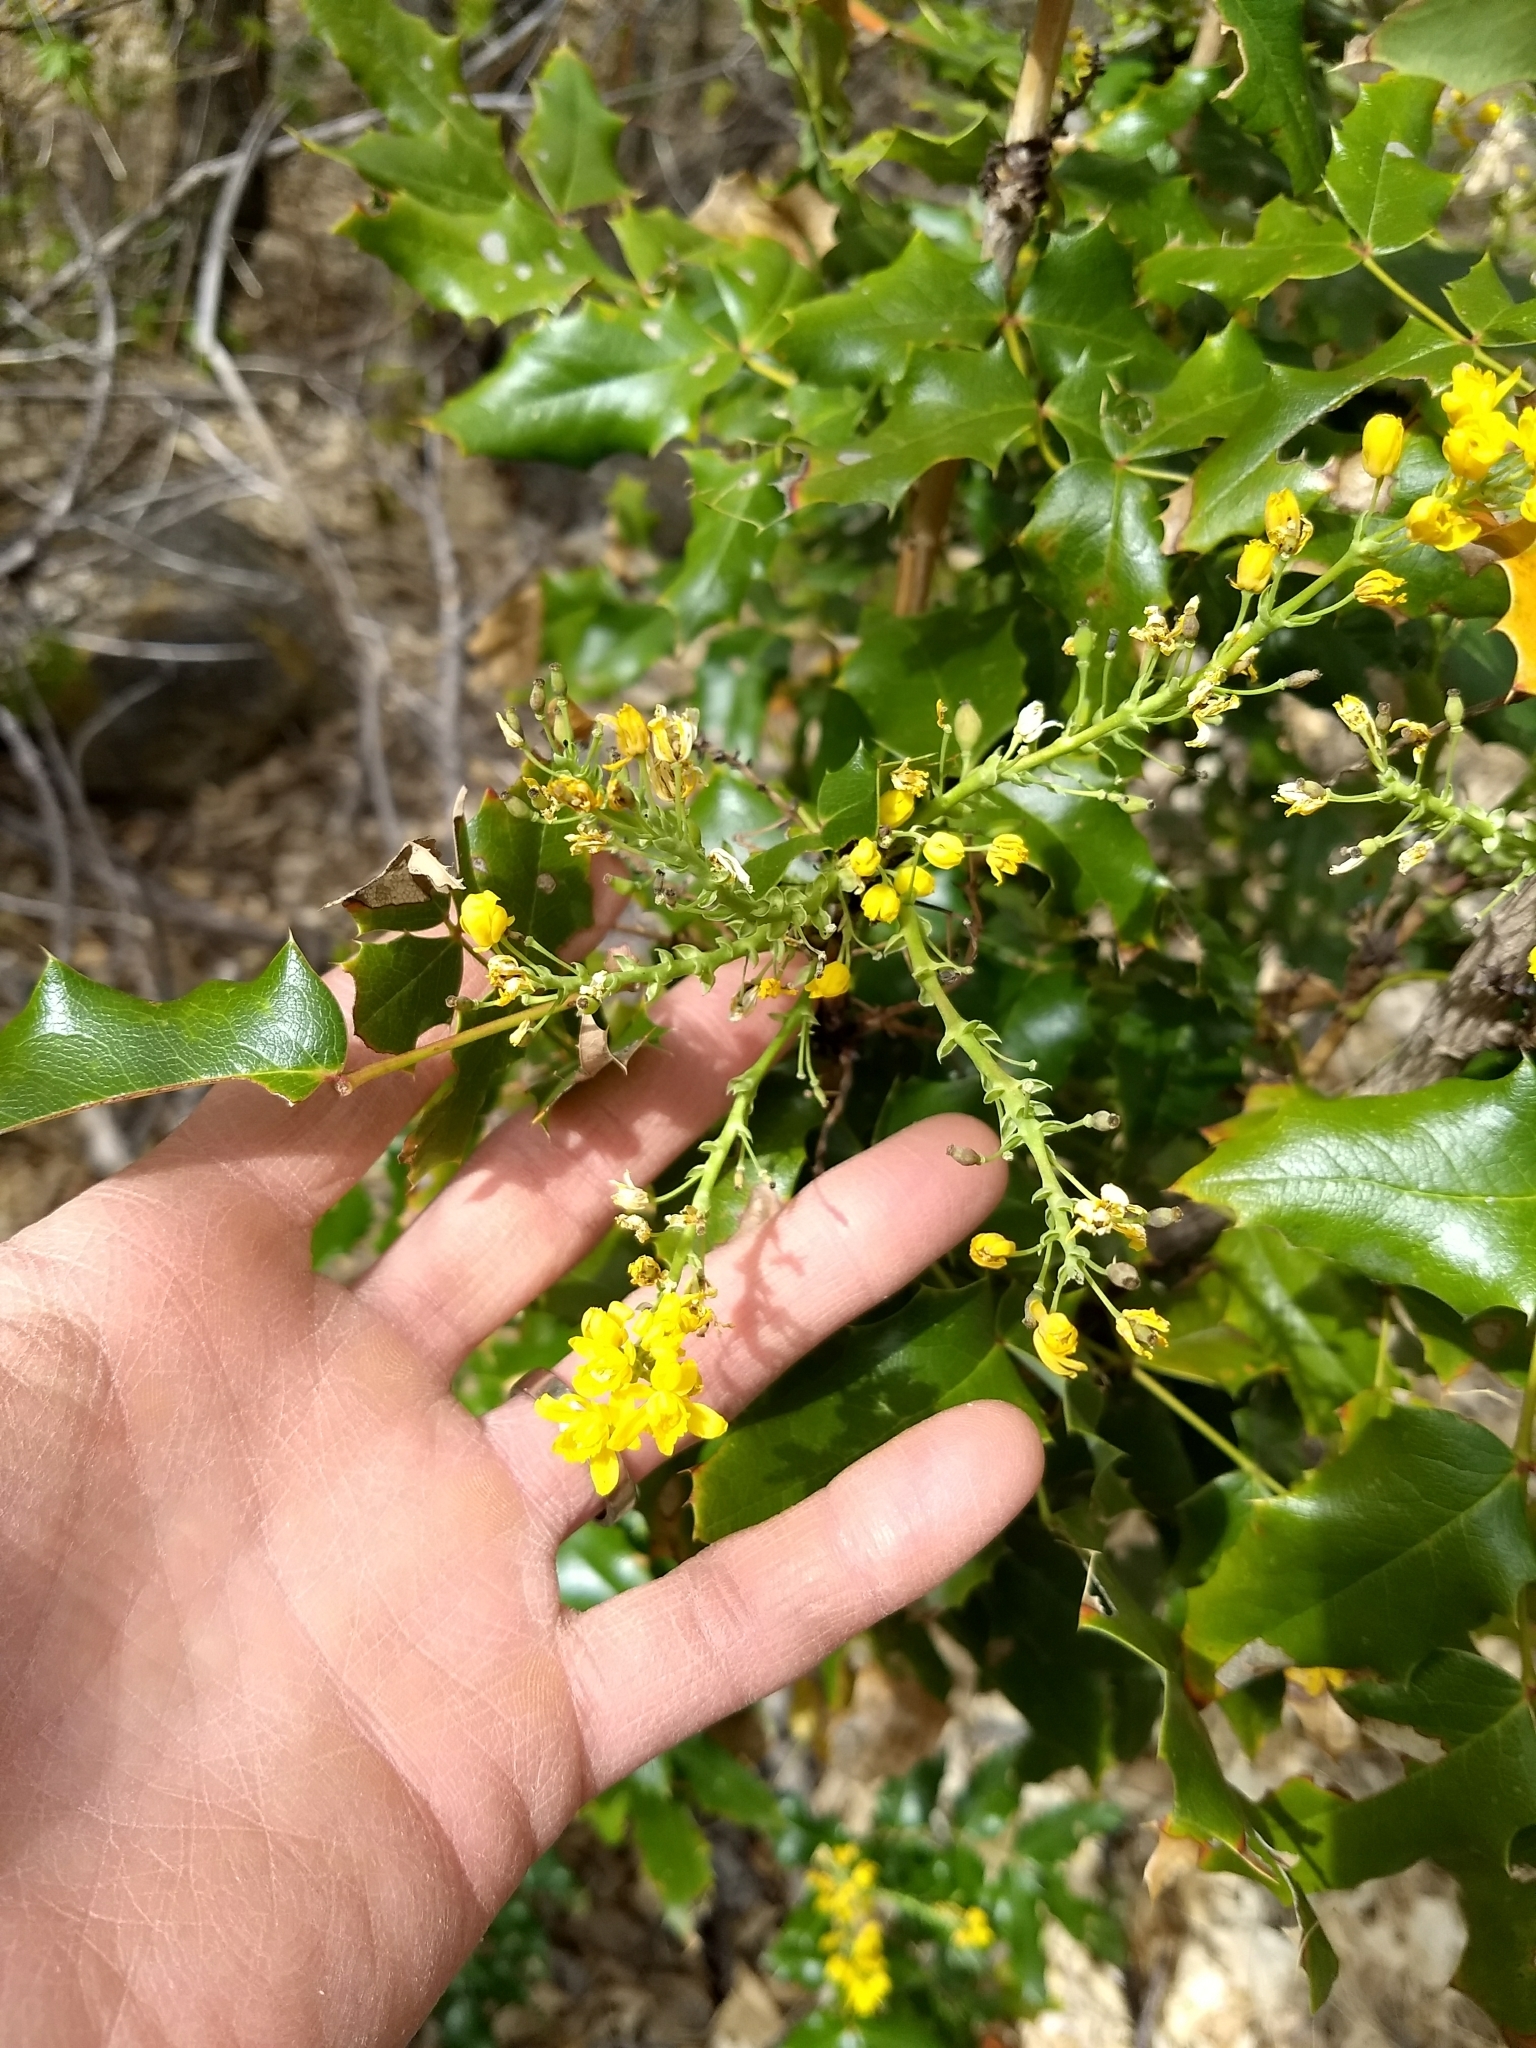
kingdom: Plantae
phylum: Tracheophyta
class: Magnoliopsida
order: Ranunculales
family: Berberidaceae
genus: Mahonia
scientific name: Mahonia aquifolium
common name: Oregon-grape
